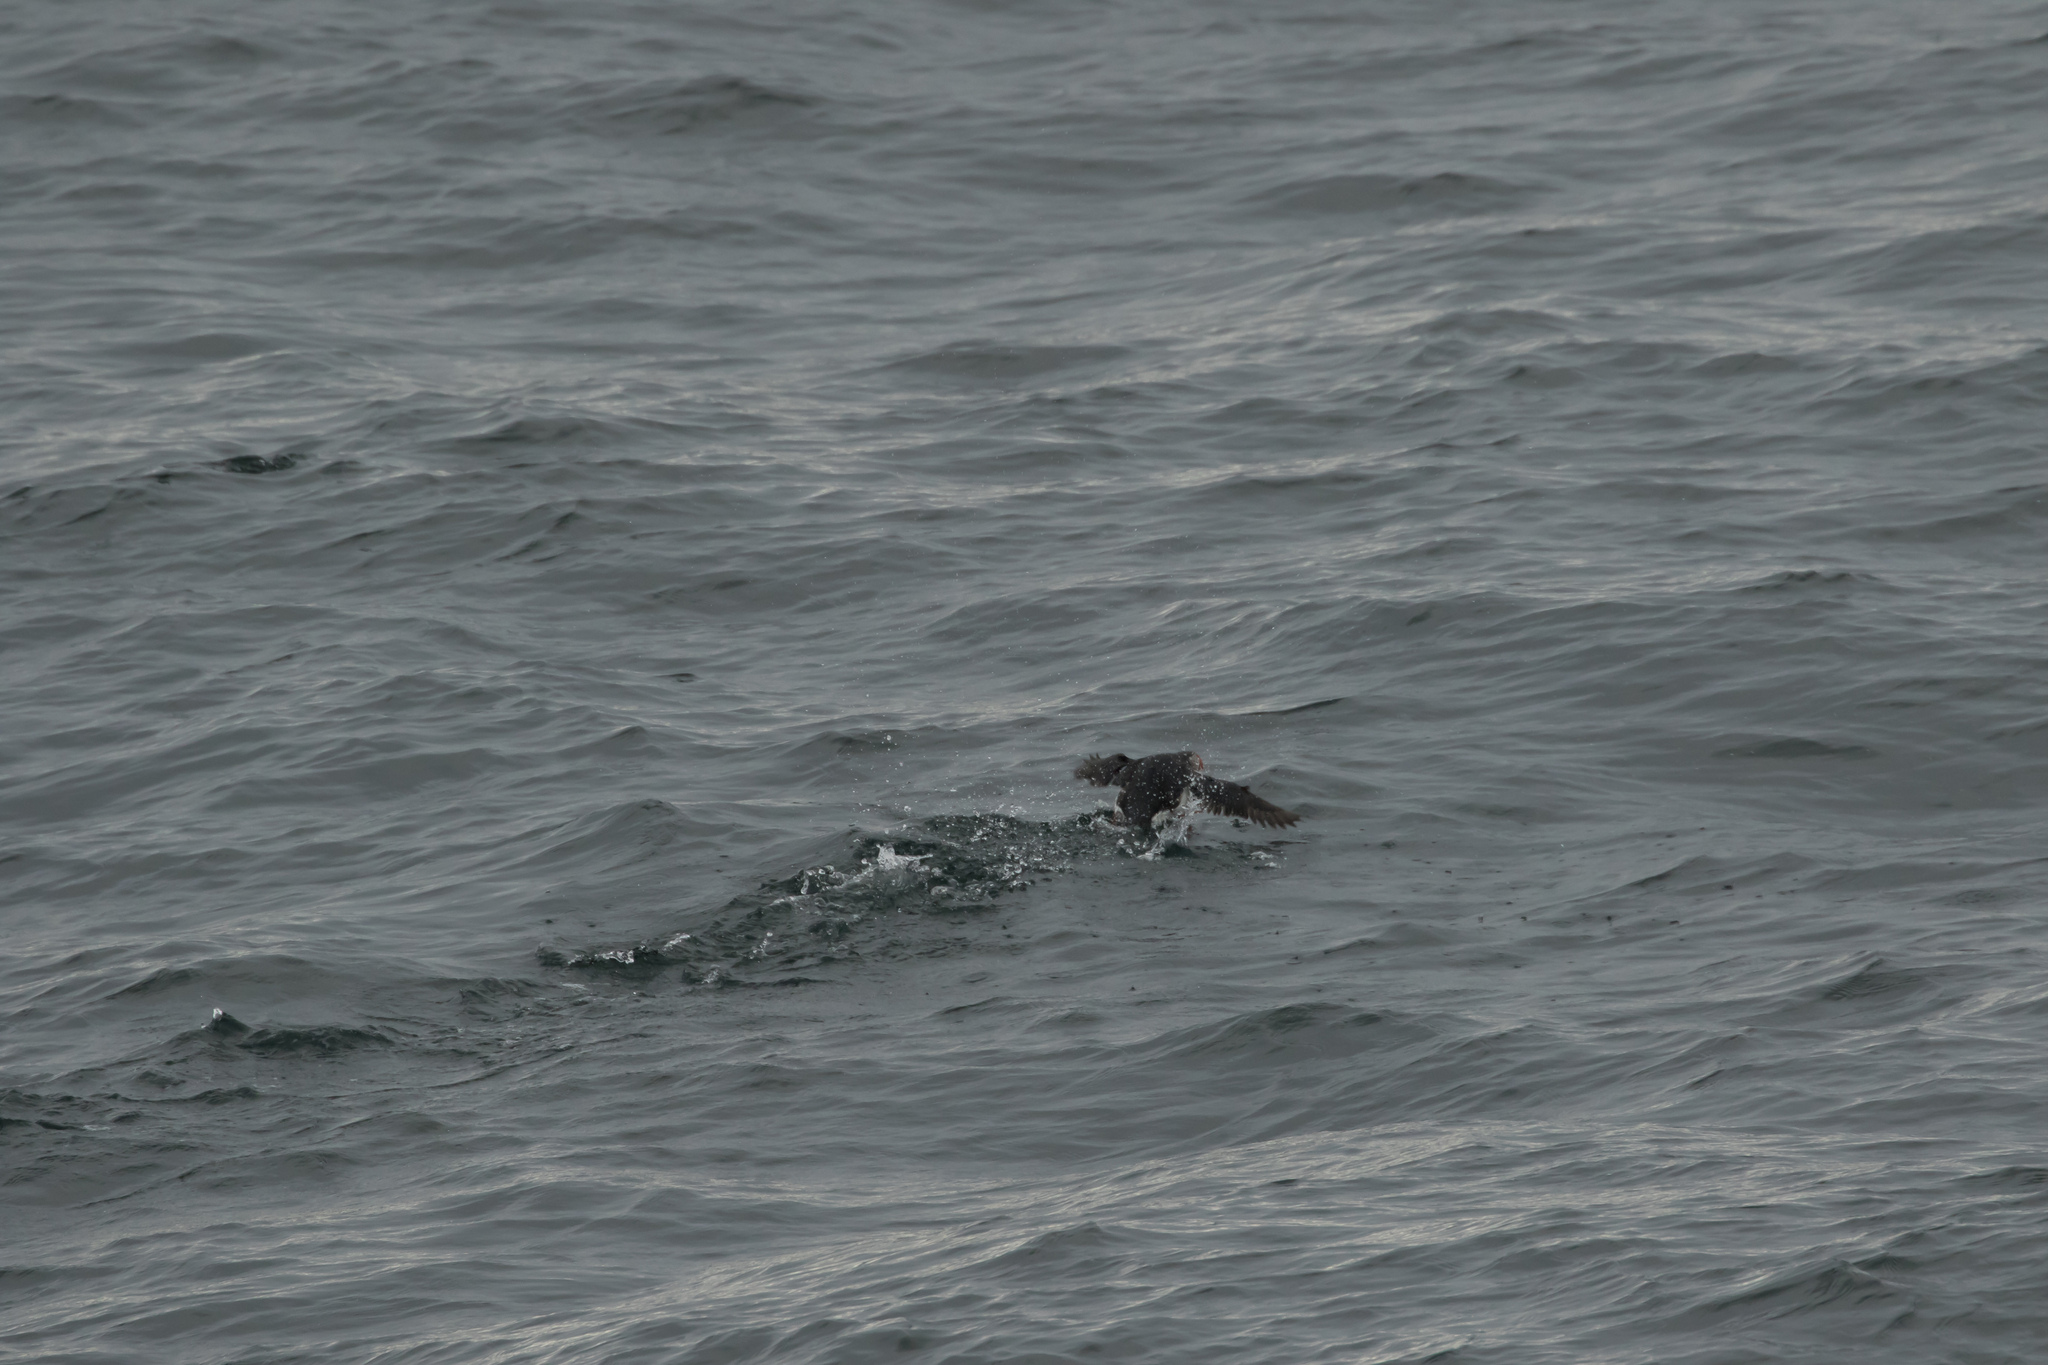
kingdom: Animalia
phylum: Chordata
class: Aves
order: Charadriiformes
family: Alcidae
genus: Fratercula
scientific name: Fratercula arctica
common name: Atlantic puffin
